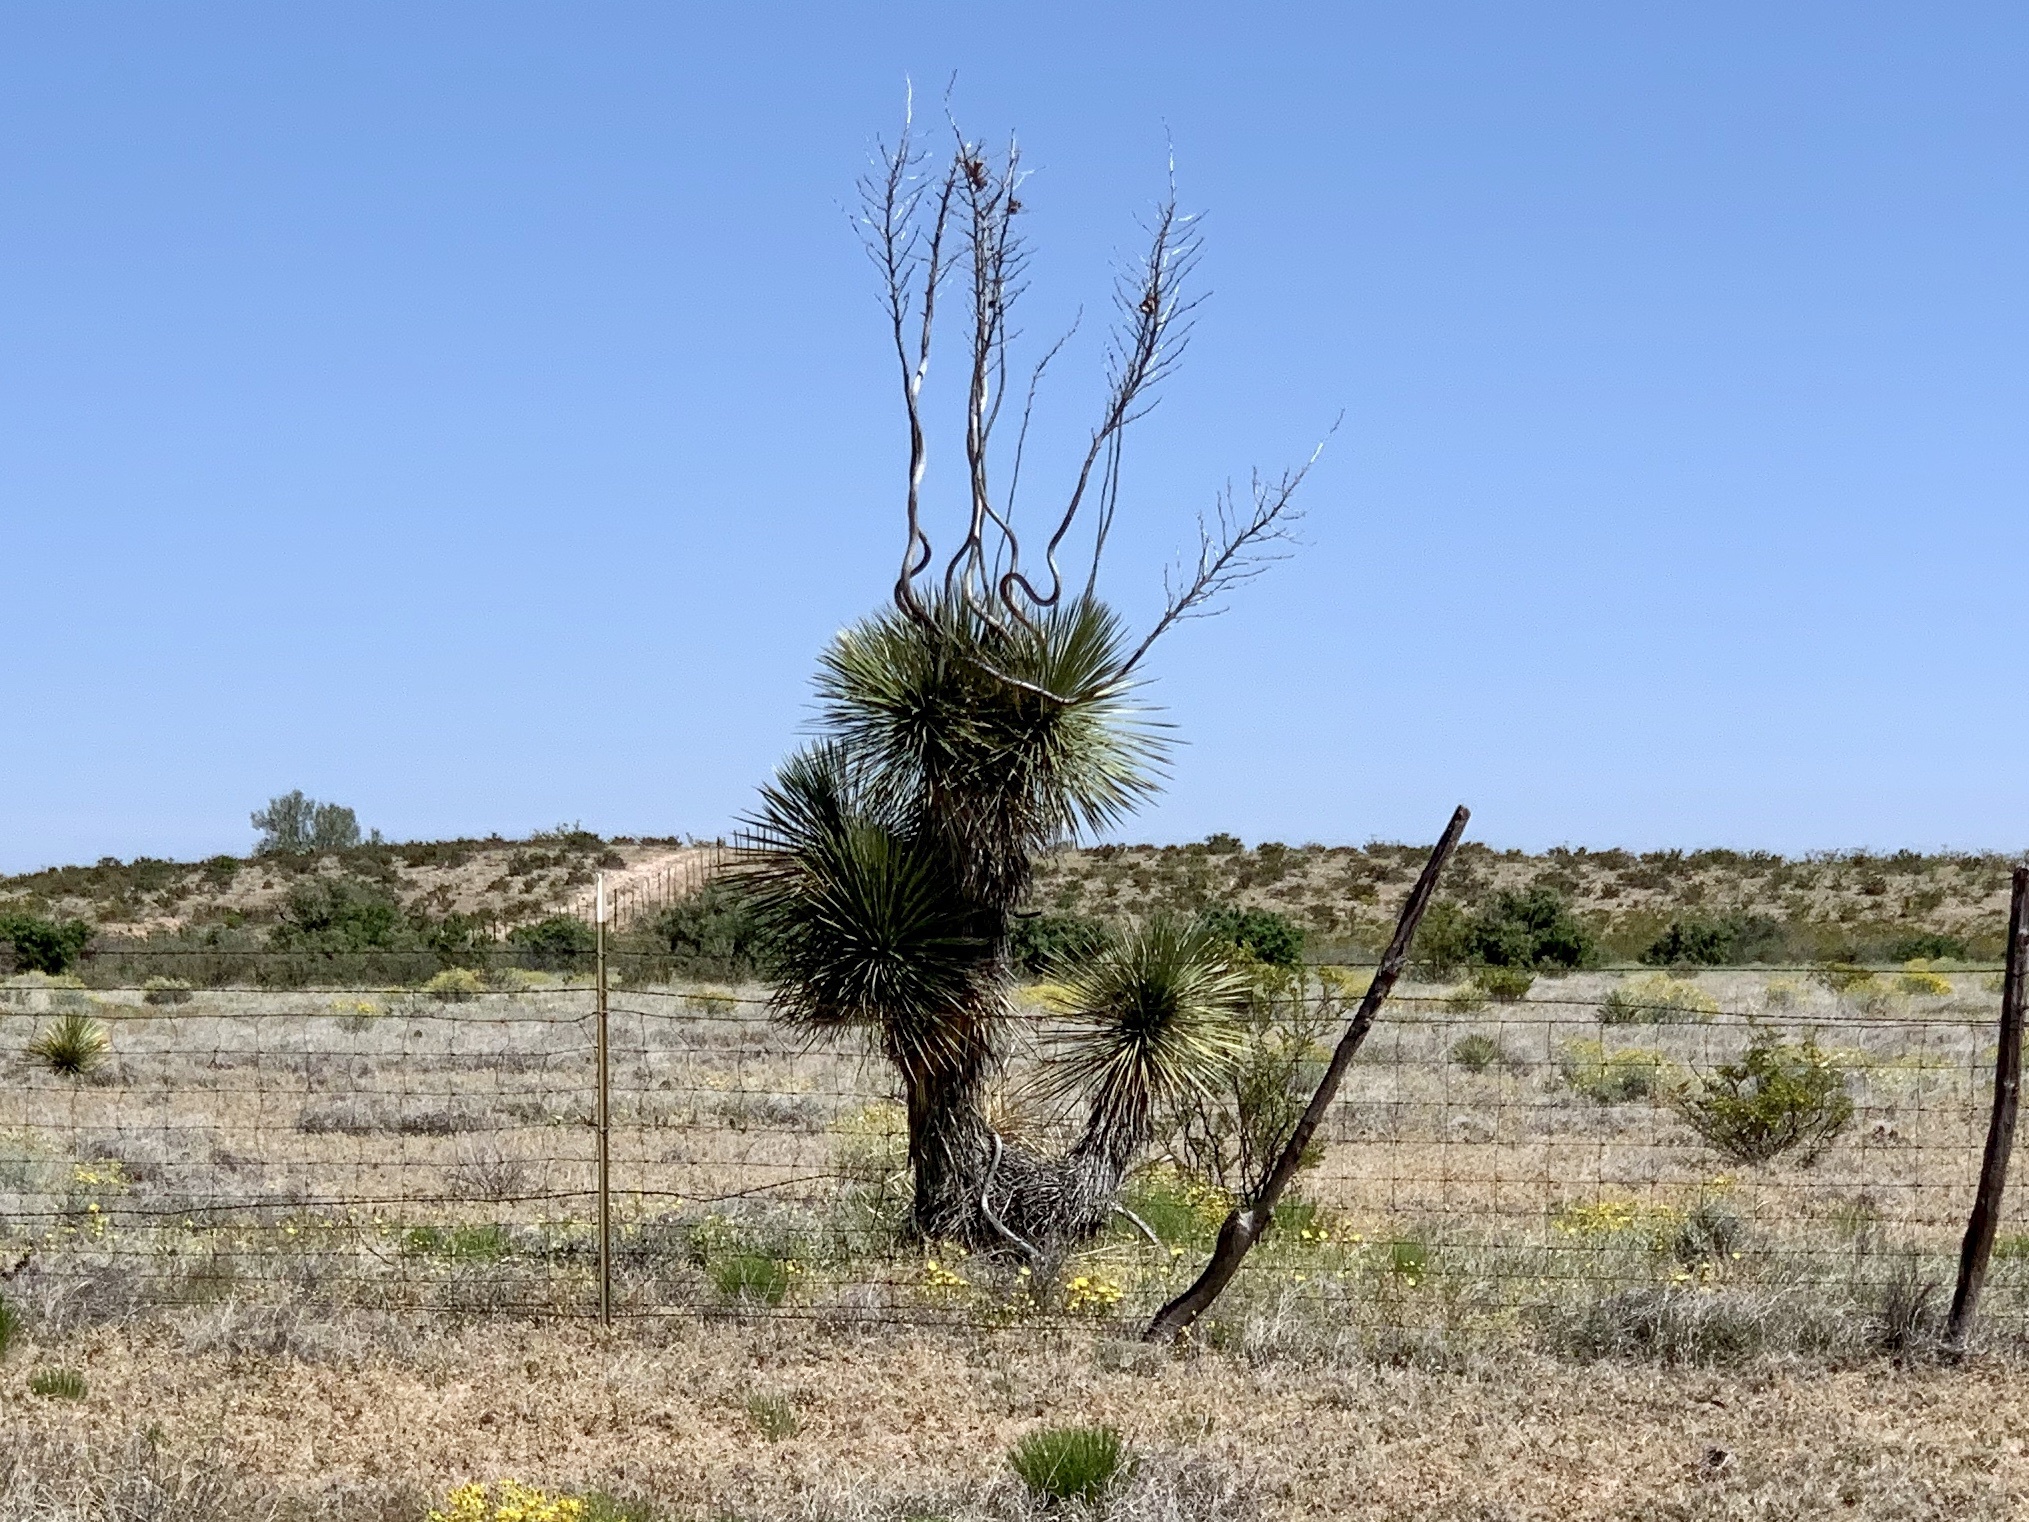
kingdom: Plantae
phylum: Tracheophyta
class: Liliopsida
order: Asparagales
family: Asparagaceae
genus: Yucca
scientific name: Yucca elata
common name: Palmella
